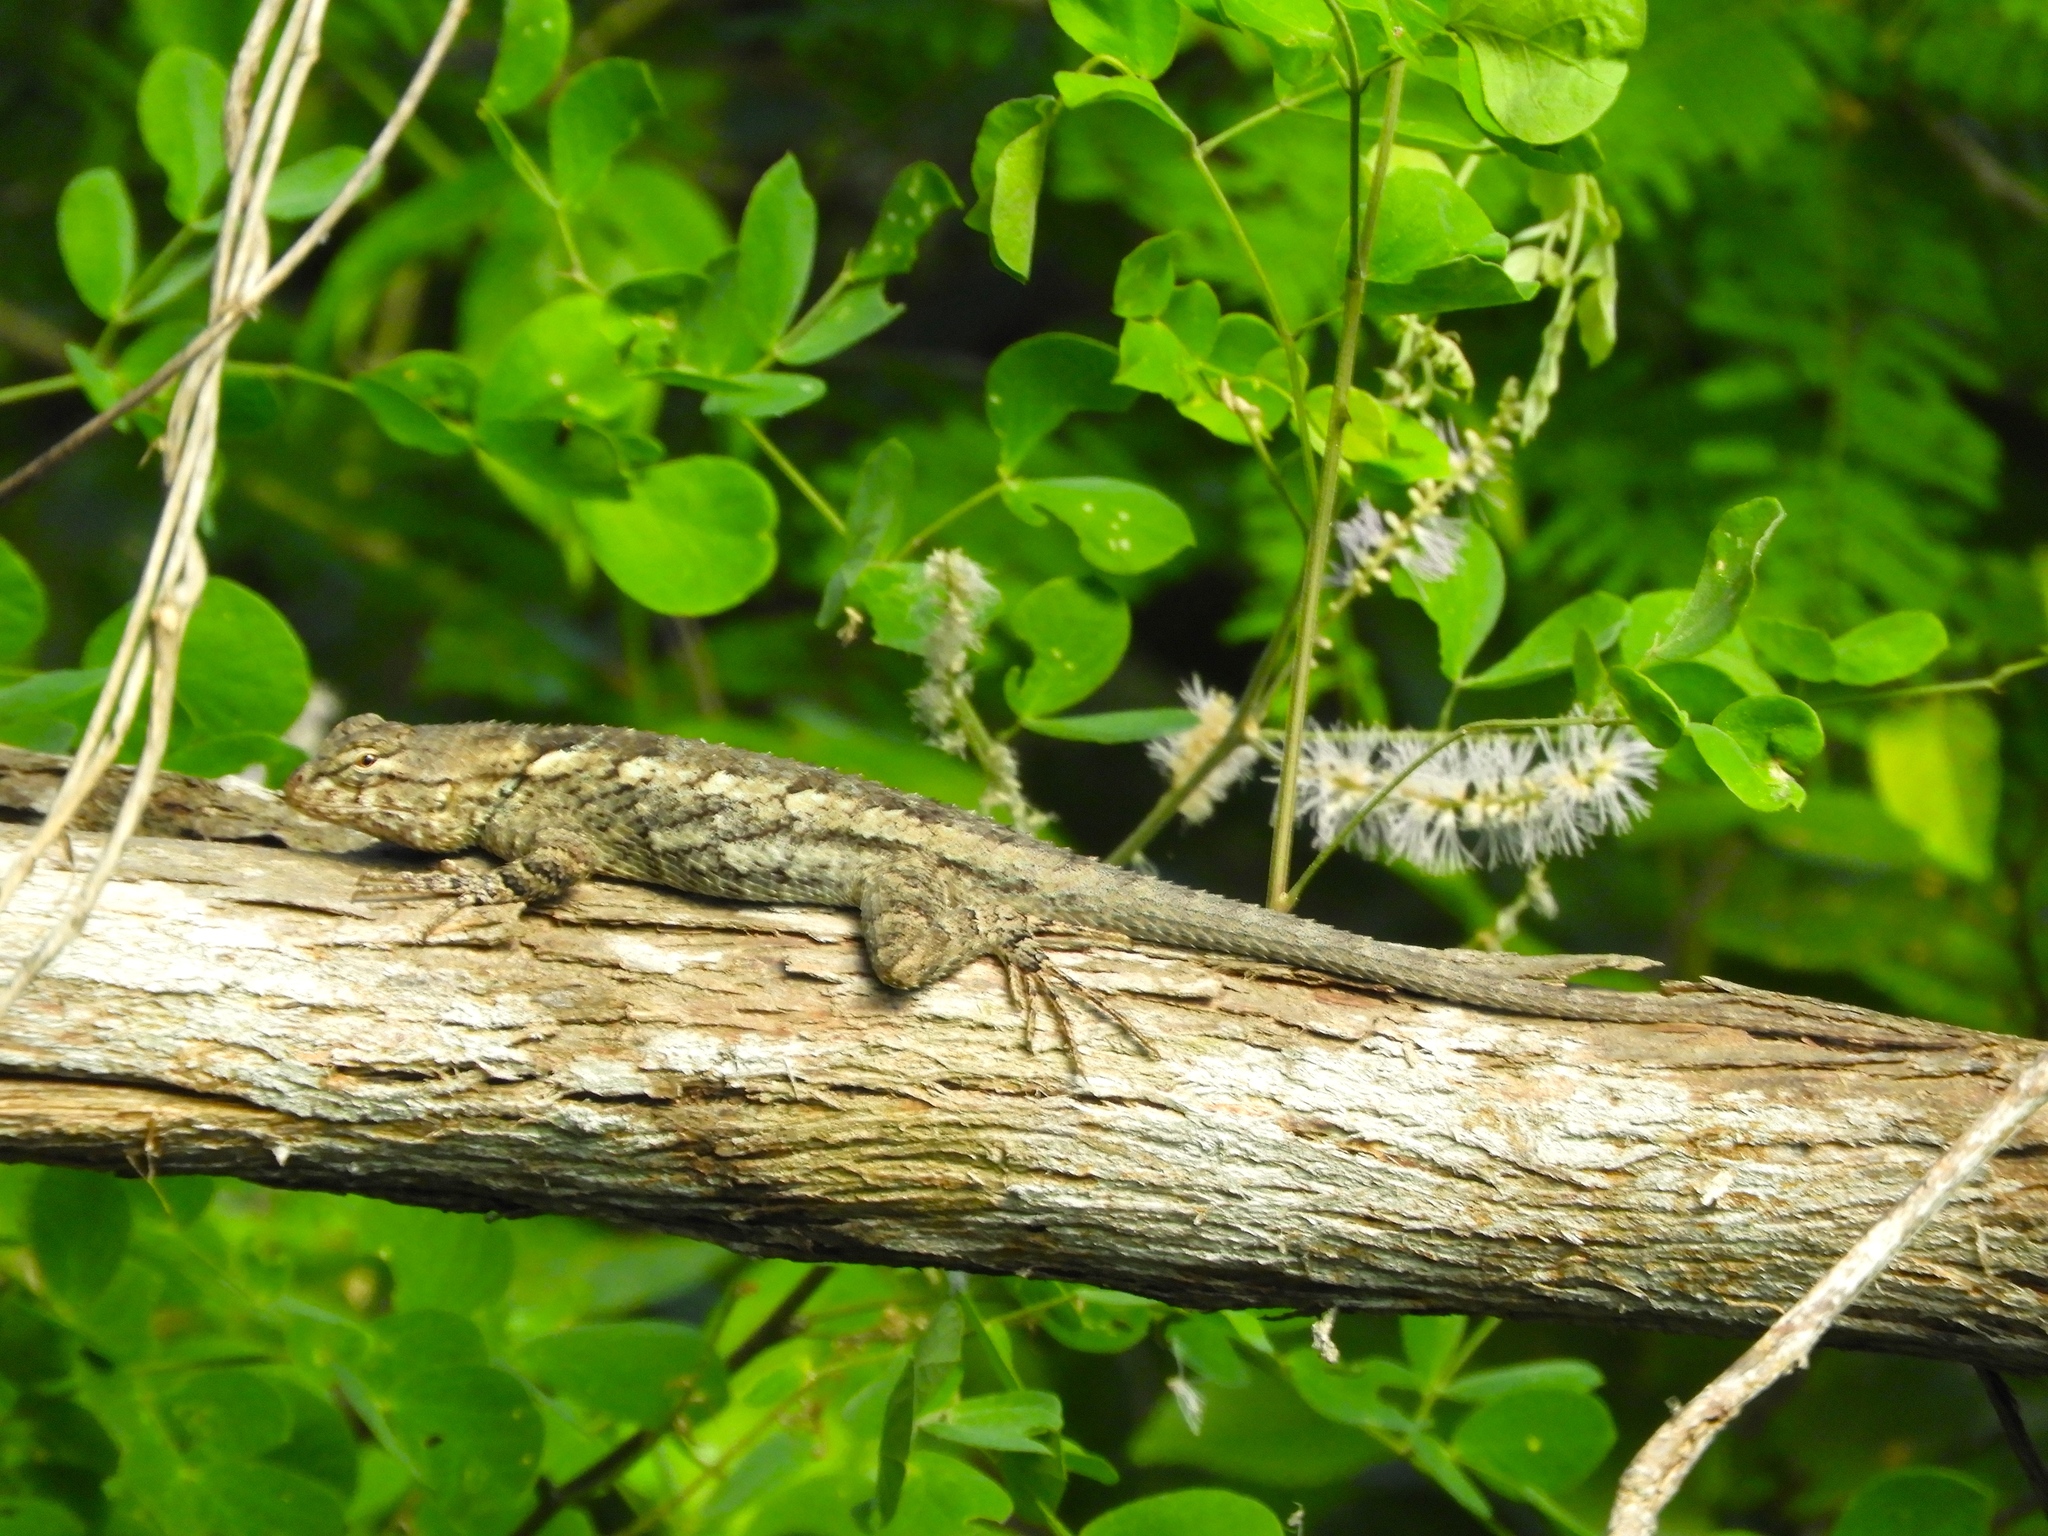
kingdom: Animalia
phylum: Chordata
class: Squamata
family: Phrynosomatidae
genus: Sceloporus
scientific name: Sceloporus clarkii
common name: Clark's spiny lizard
